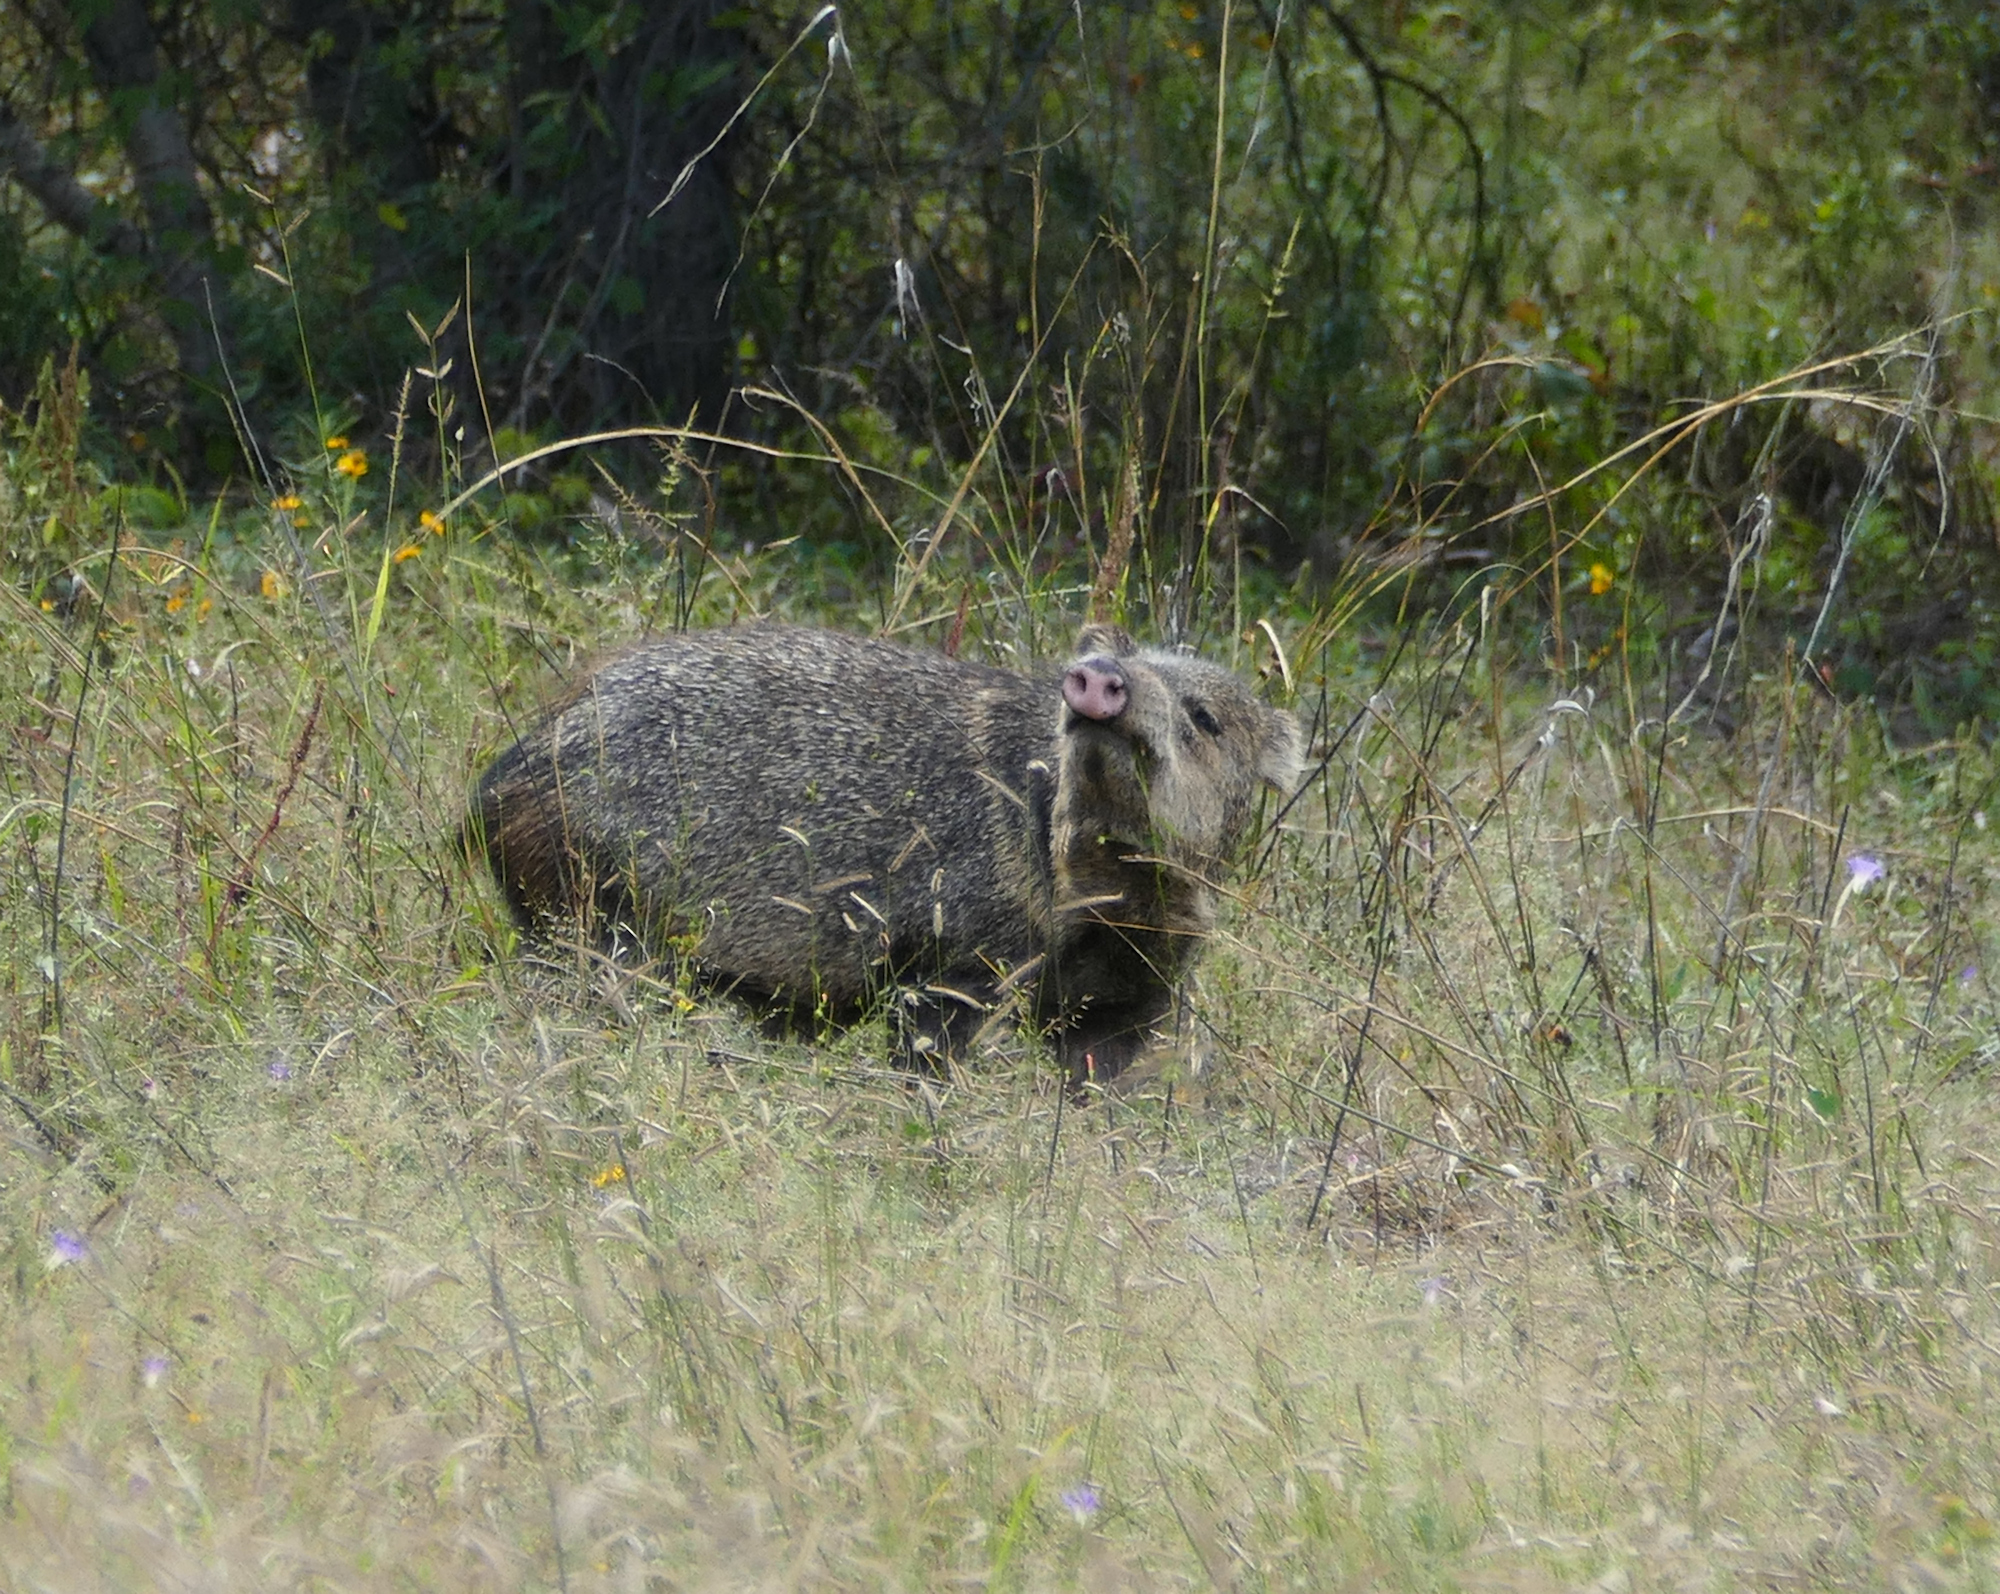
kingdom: Animalia
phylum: Chordata
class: Mammalia
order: Artiodactyla
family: Tayassuidae
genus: Pecari
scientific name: Pecari tajacu
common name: Collared peccary
